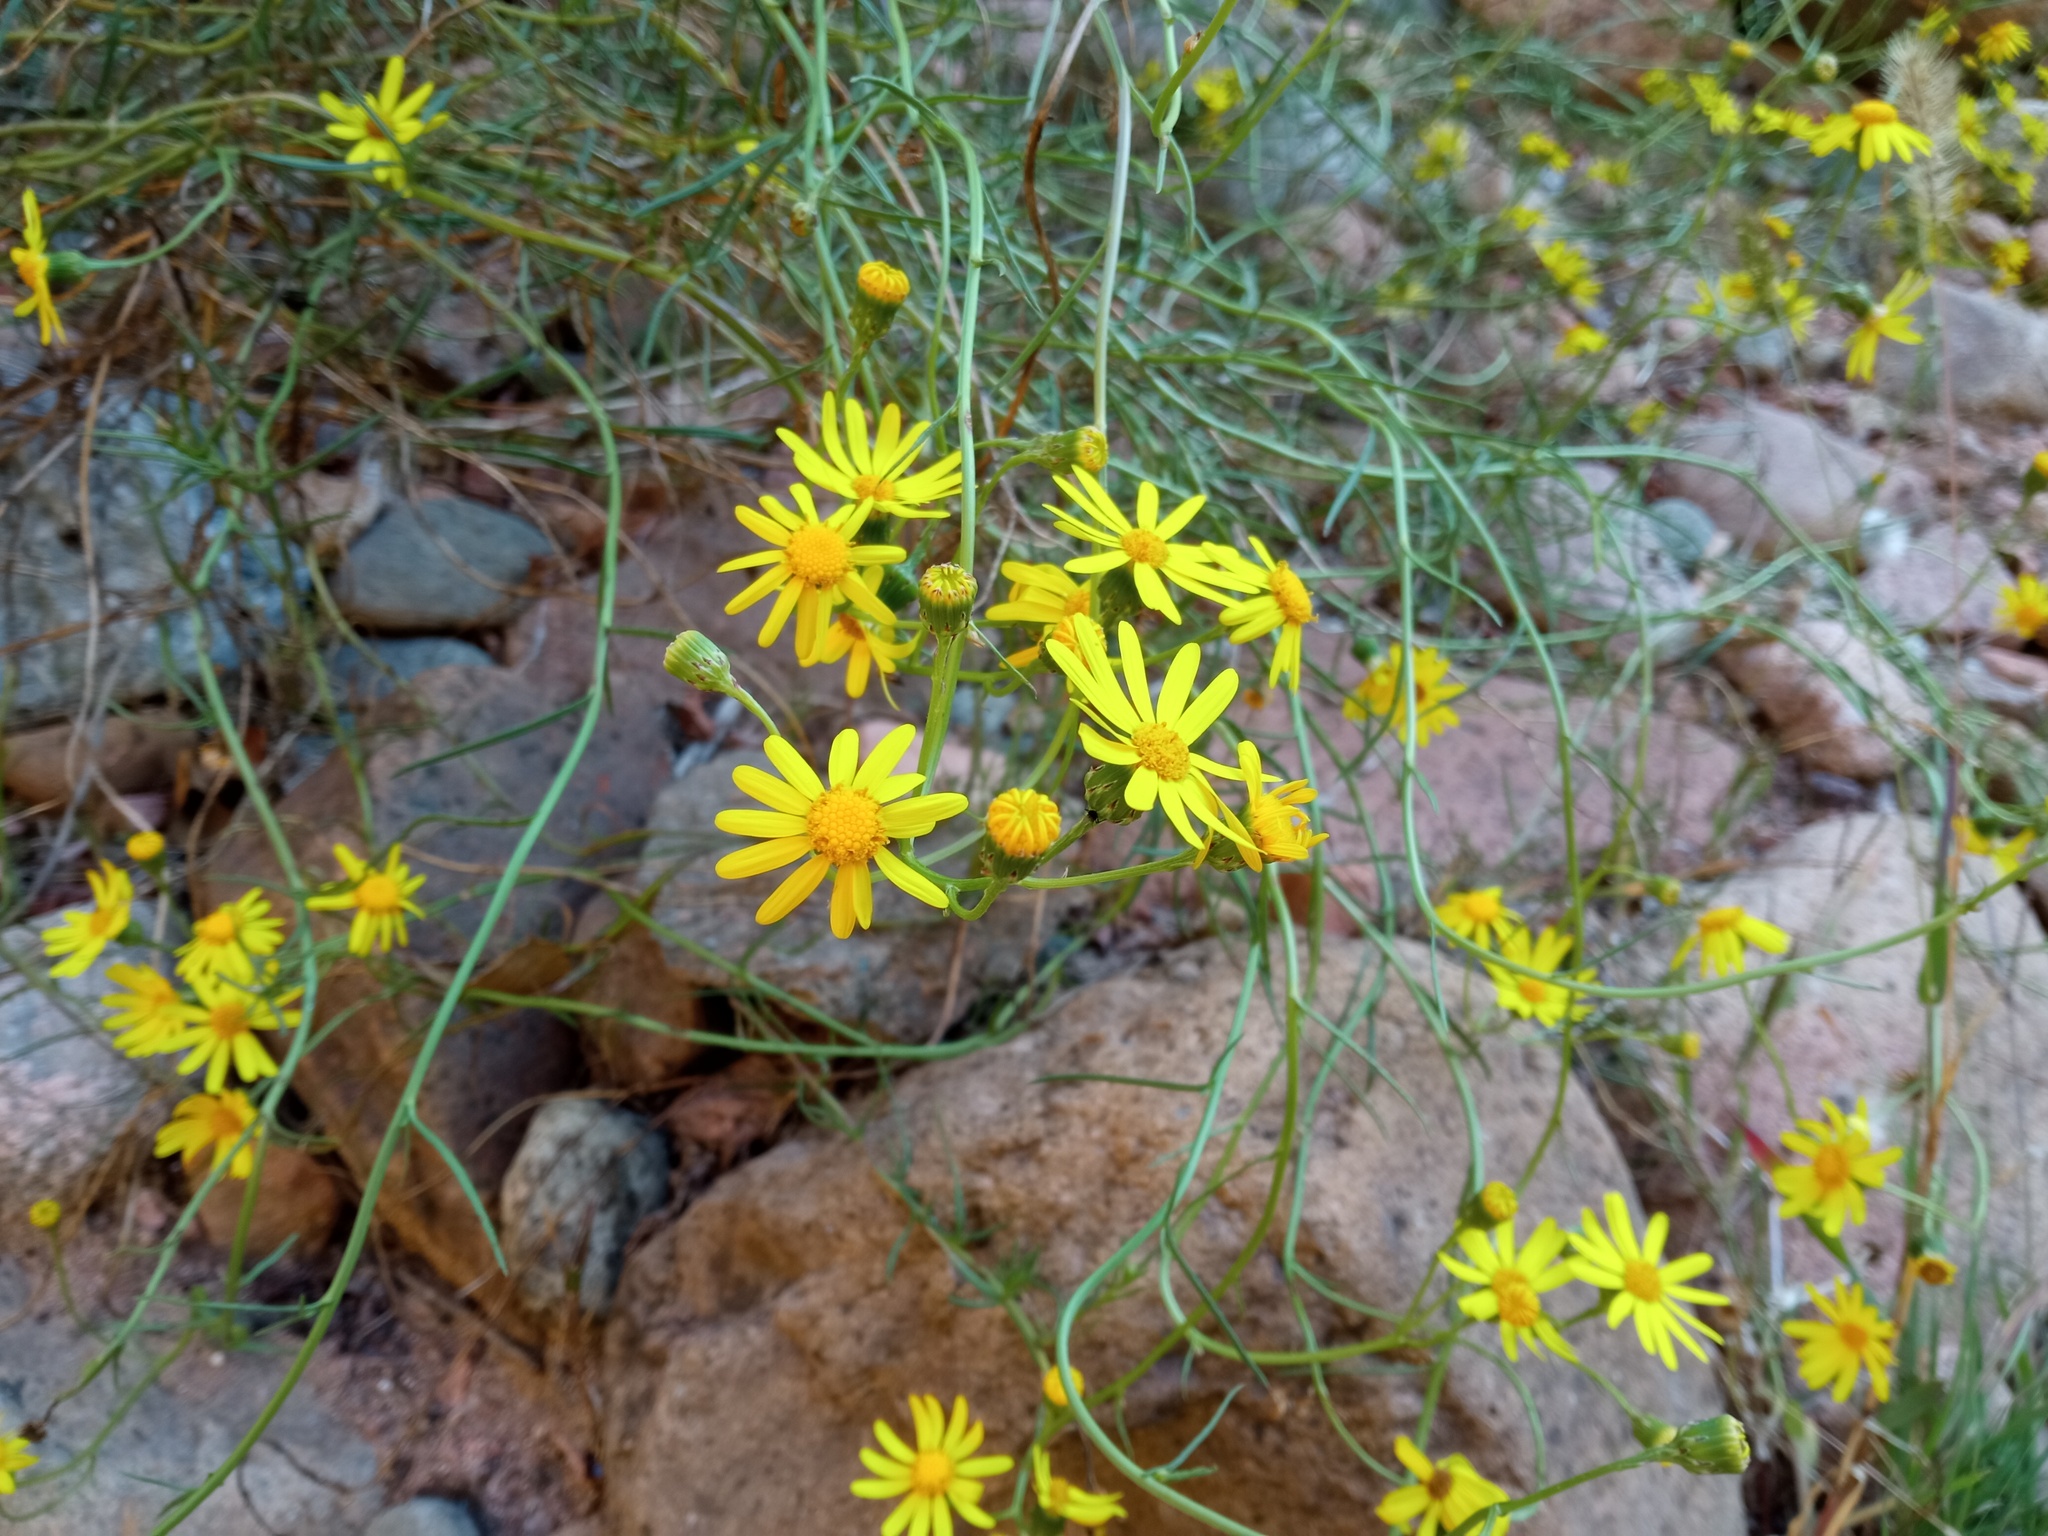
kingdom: Plantae
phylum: Tracheophyta
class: Magnoliopsida
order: Asterales
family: Asteraceae
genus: Senecio
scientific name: Senecio inaequidens
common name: Narrow-leaved ragwort
